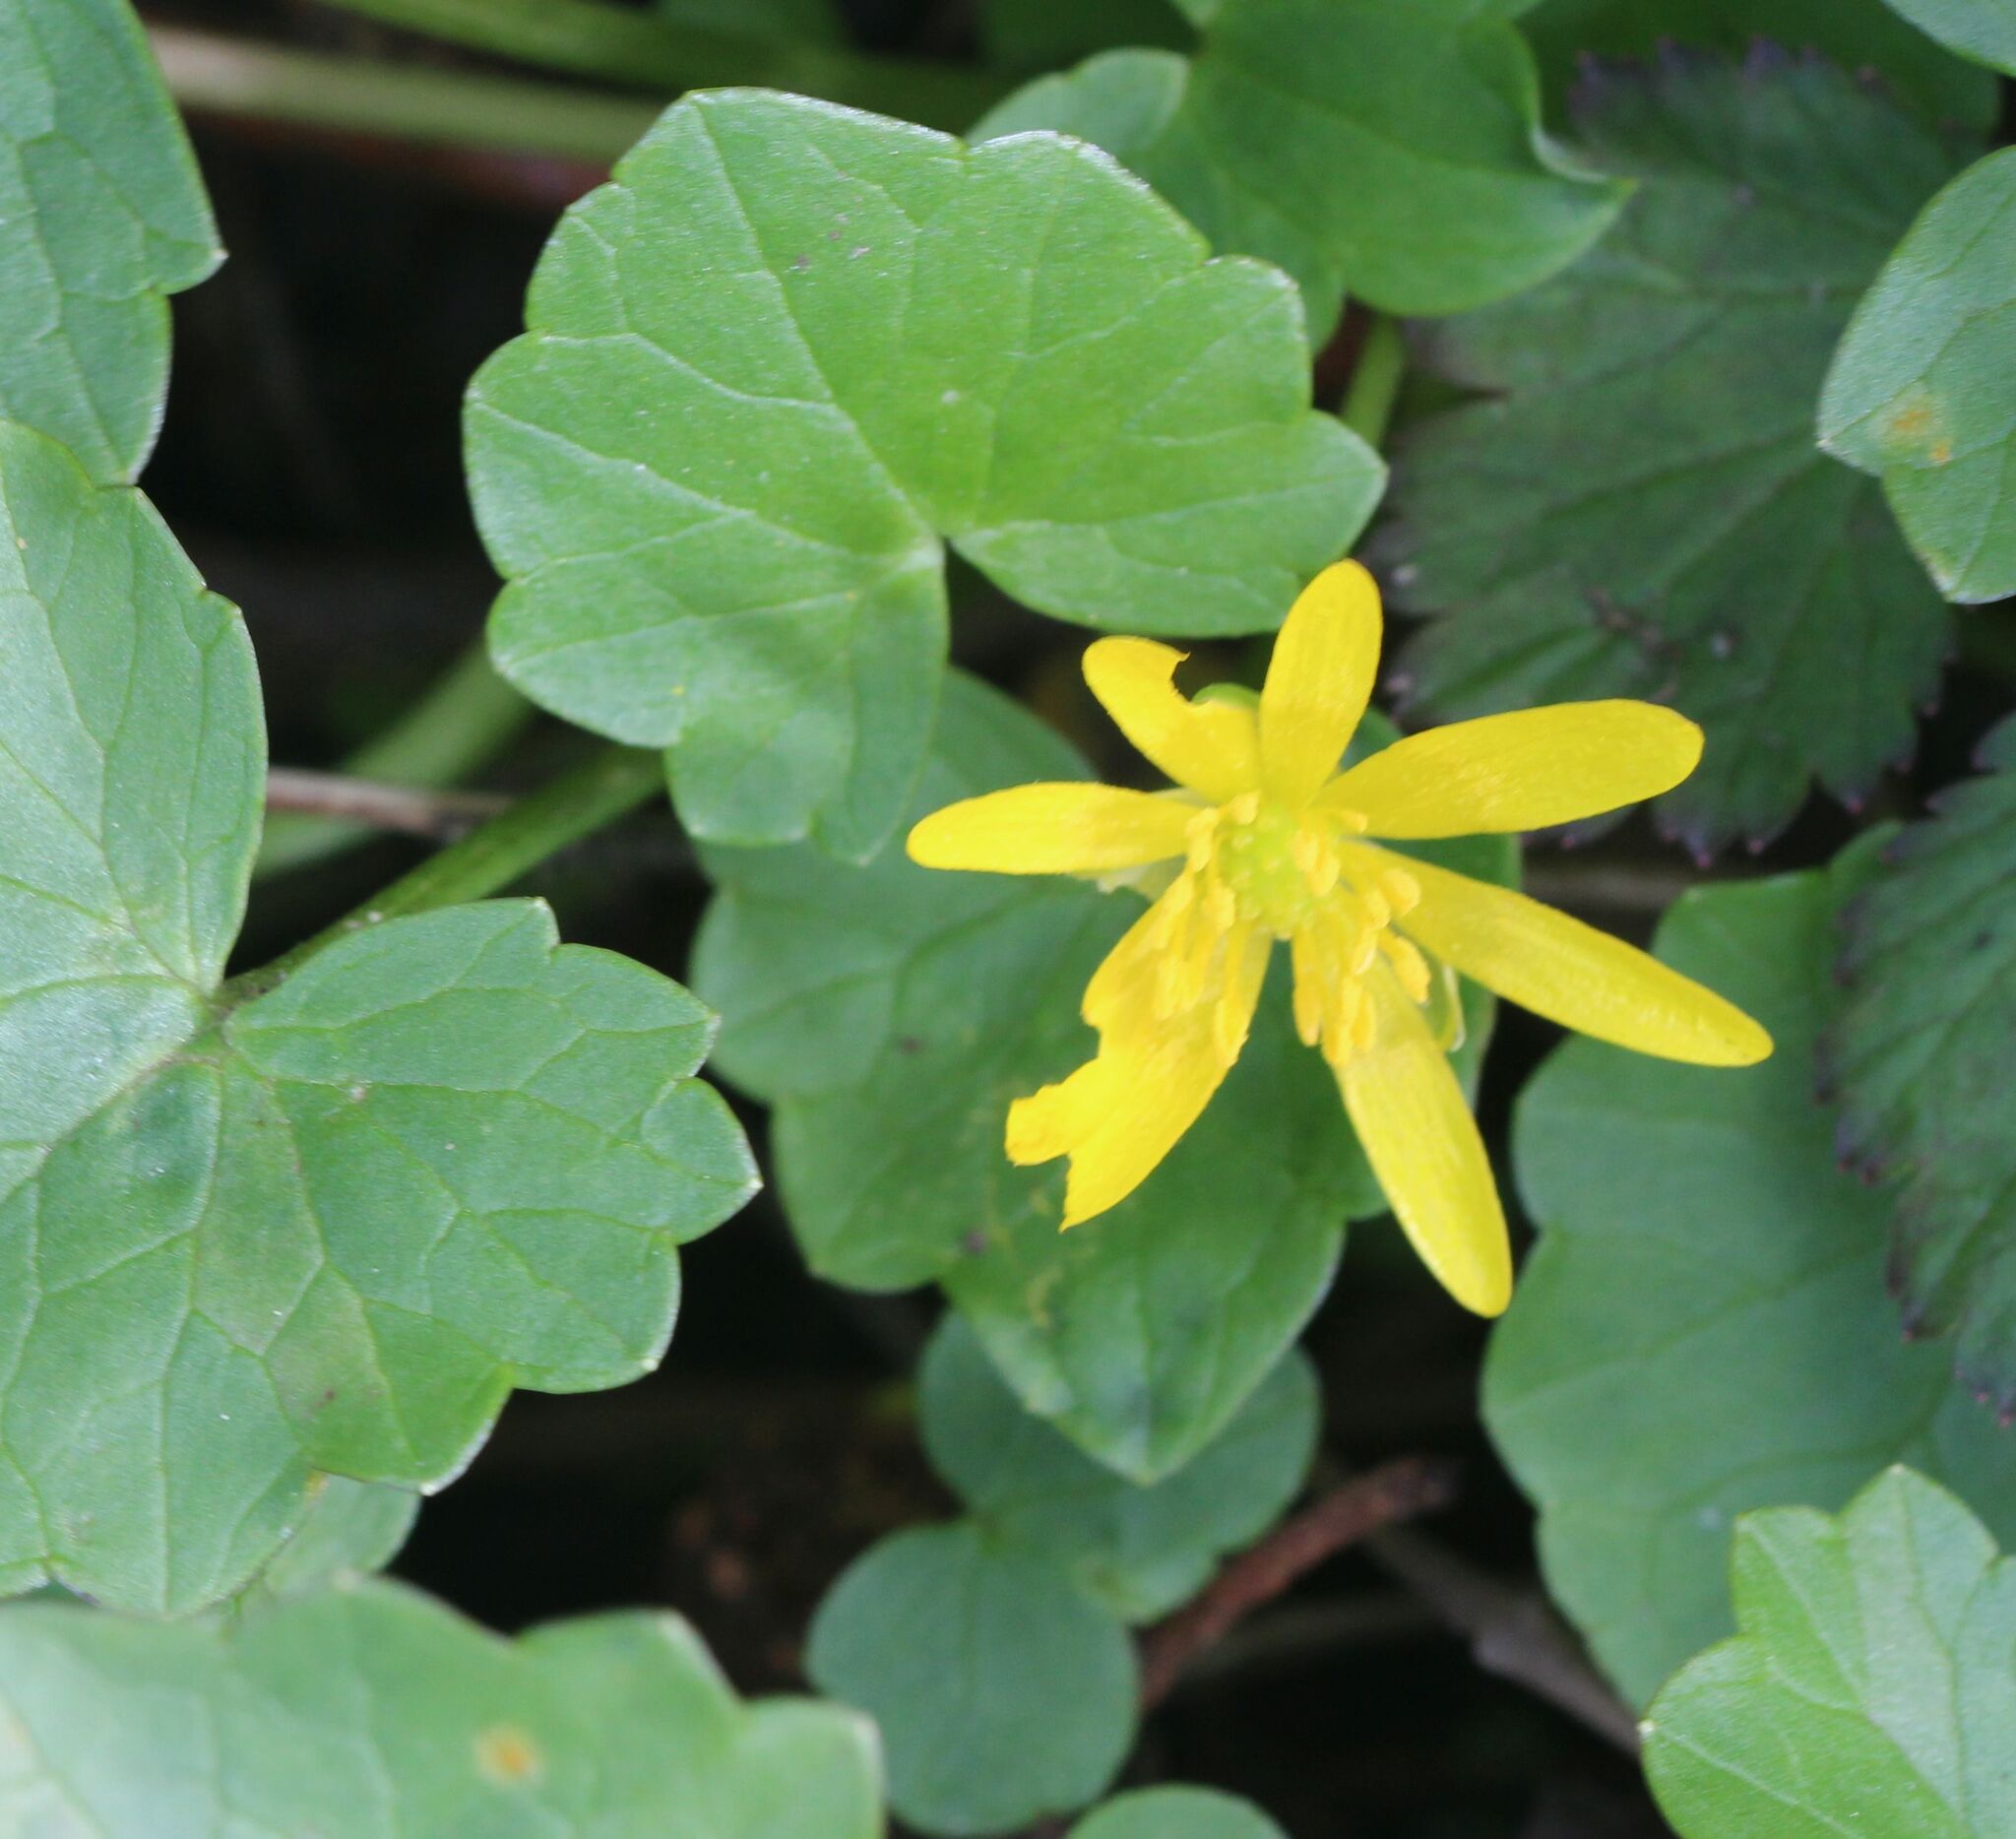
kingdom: Plantae
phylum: Tracheophyta
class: Magnoliopsida
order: Ranunculales
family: Ranunculaceae
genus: Ficaria
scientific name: Ficaria verna
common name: Lesser celandine
